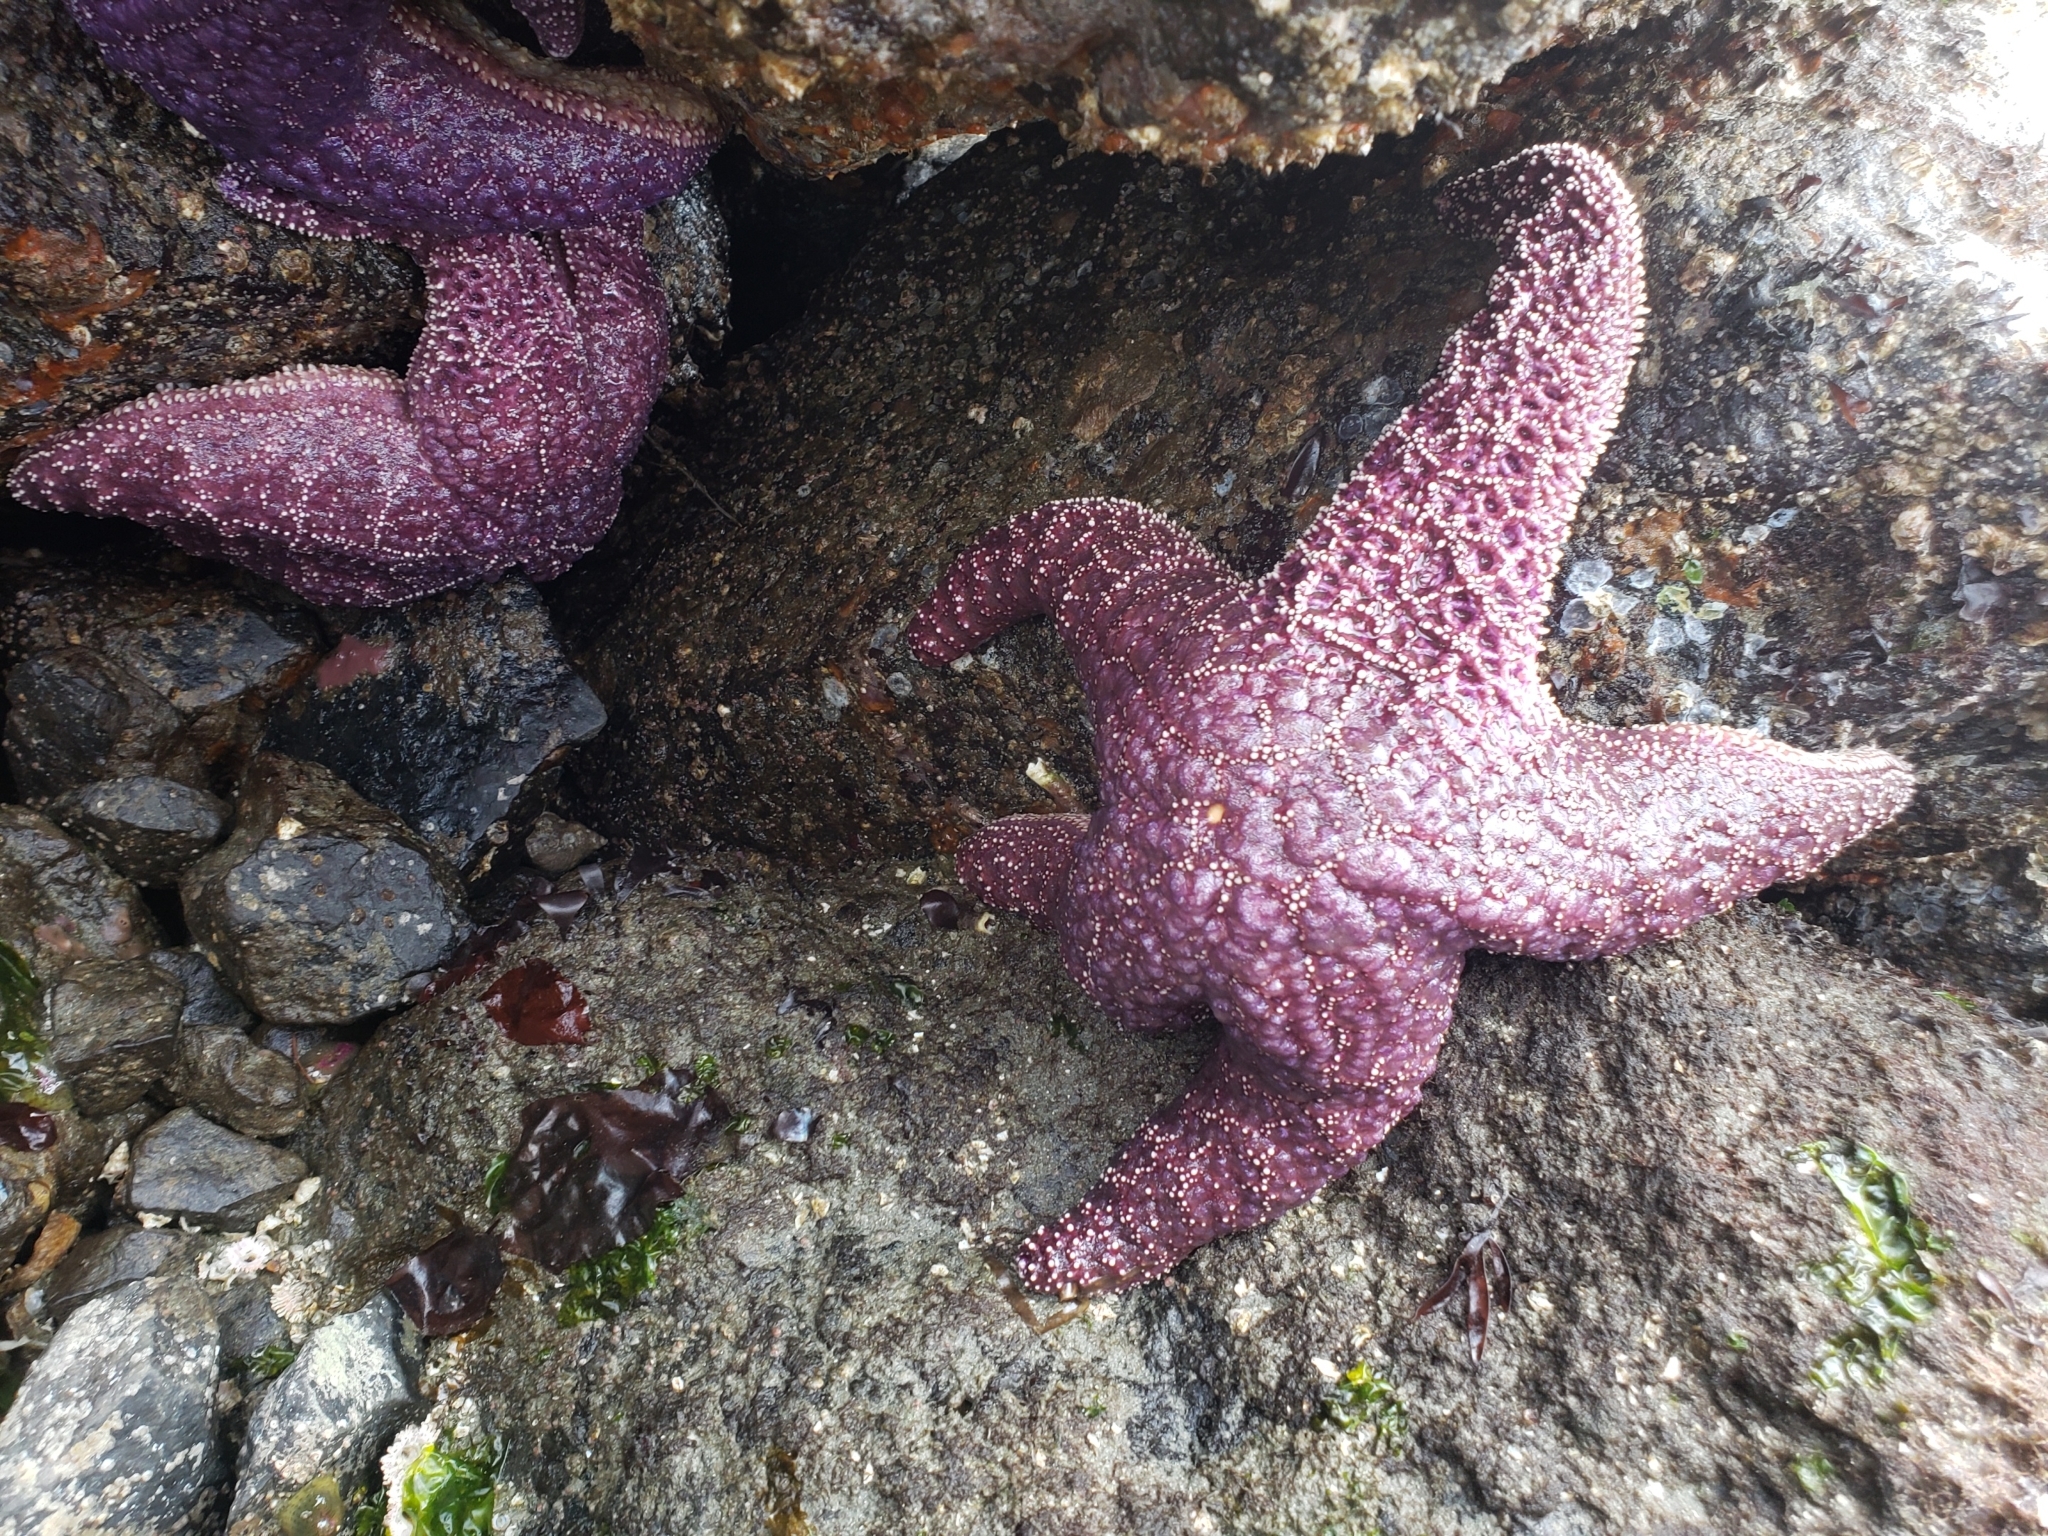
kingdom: Animalia
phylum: Echinodermata
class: Asteroidea
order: Forcipulatida
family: Asteriidae
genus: Pisaster
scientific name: Pisaster ochraceus
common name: Ochre stars
